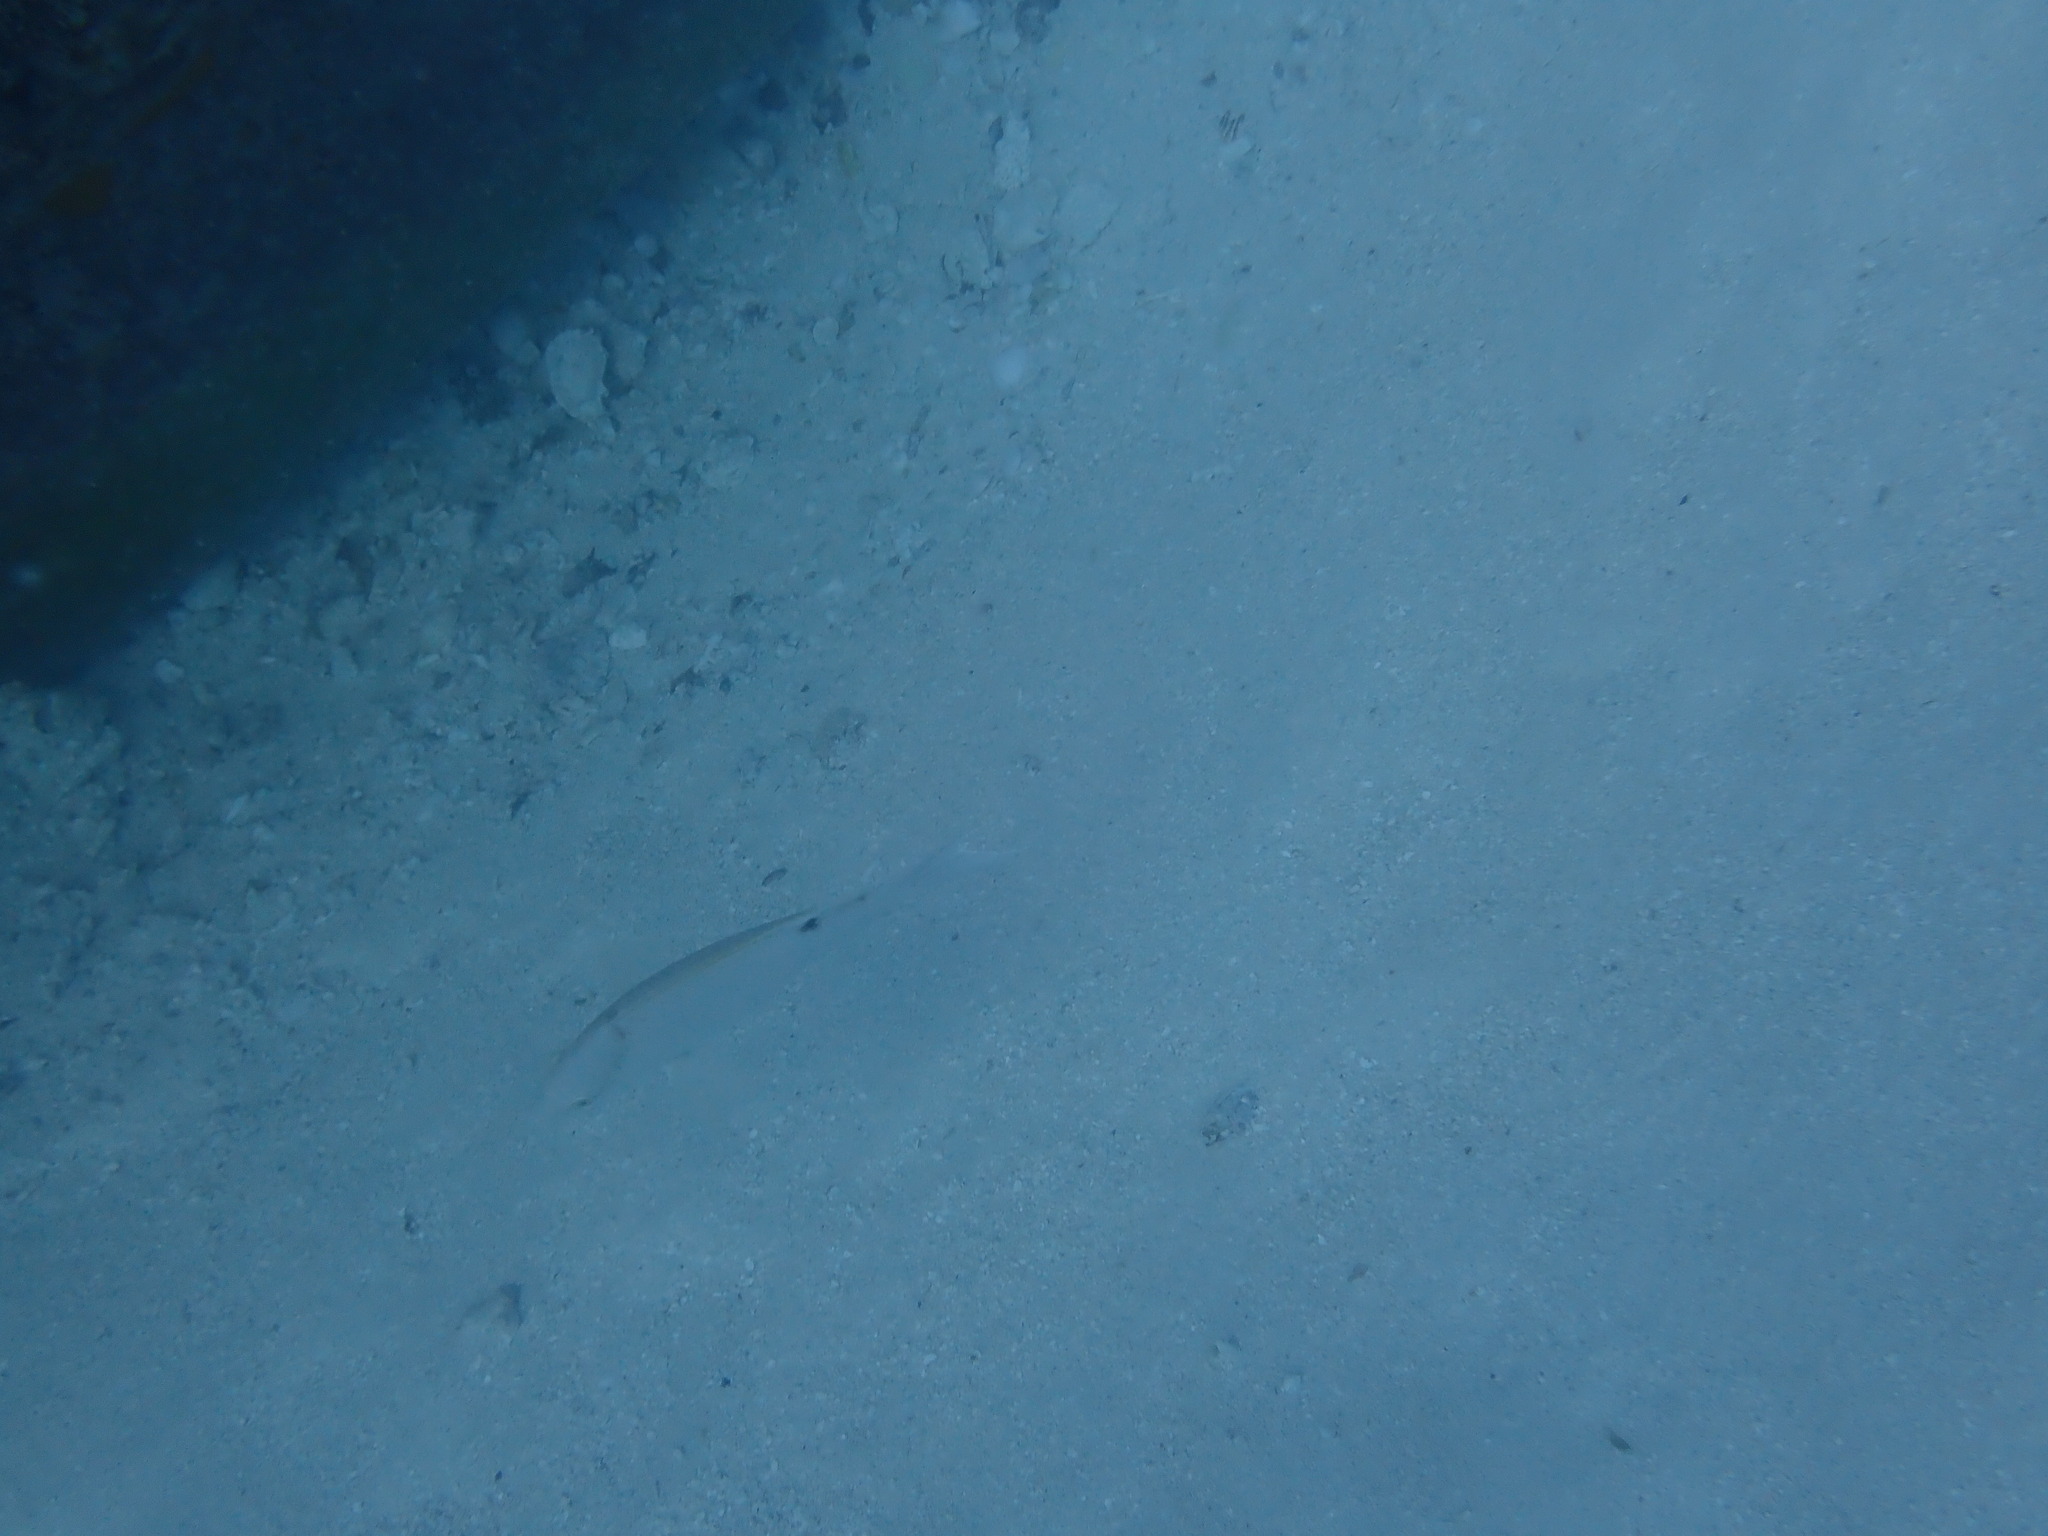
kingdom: Animalia
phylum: Chordata
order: Perciformes
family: Labridae
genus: Lachnolaimus
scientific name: Lachnolaimus maximus
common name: Hogfish
